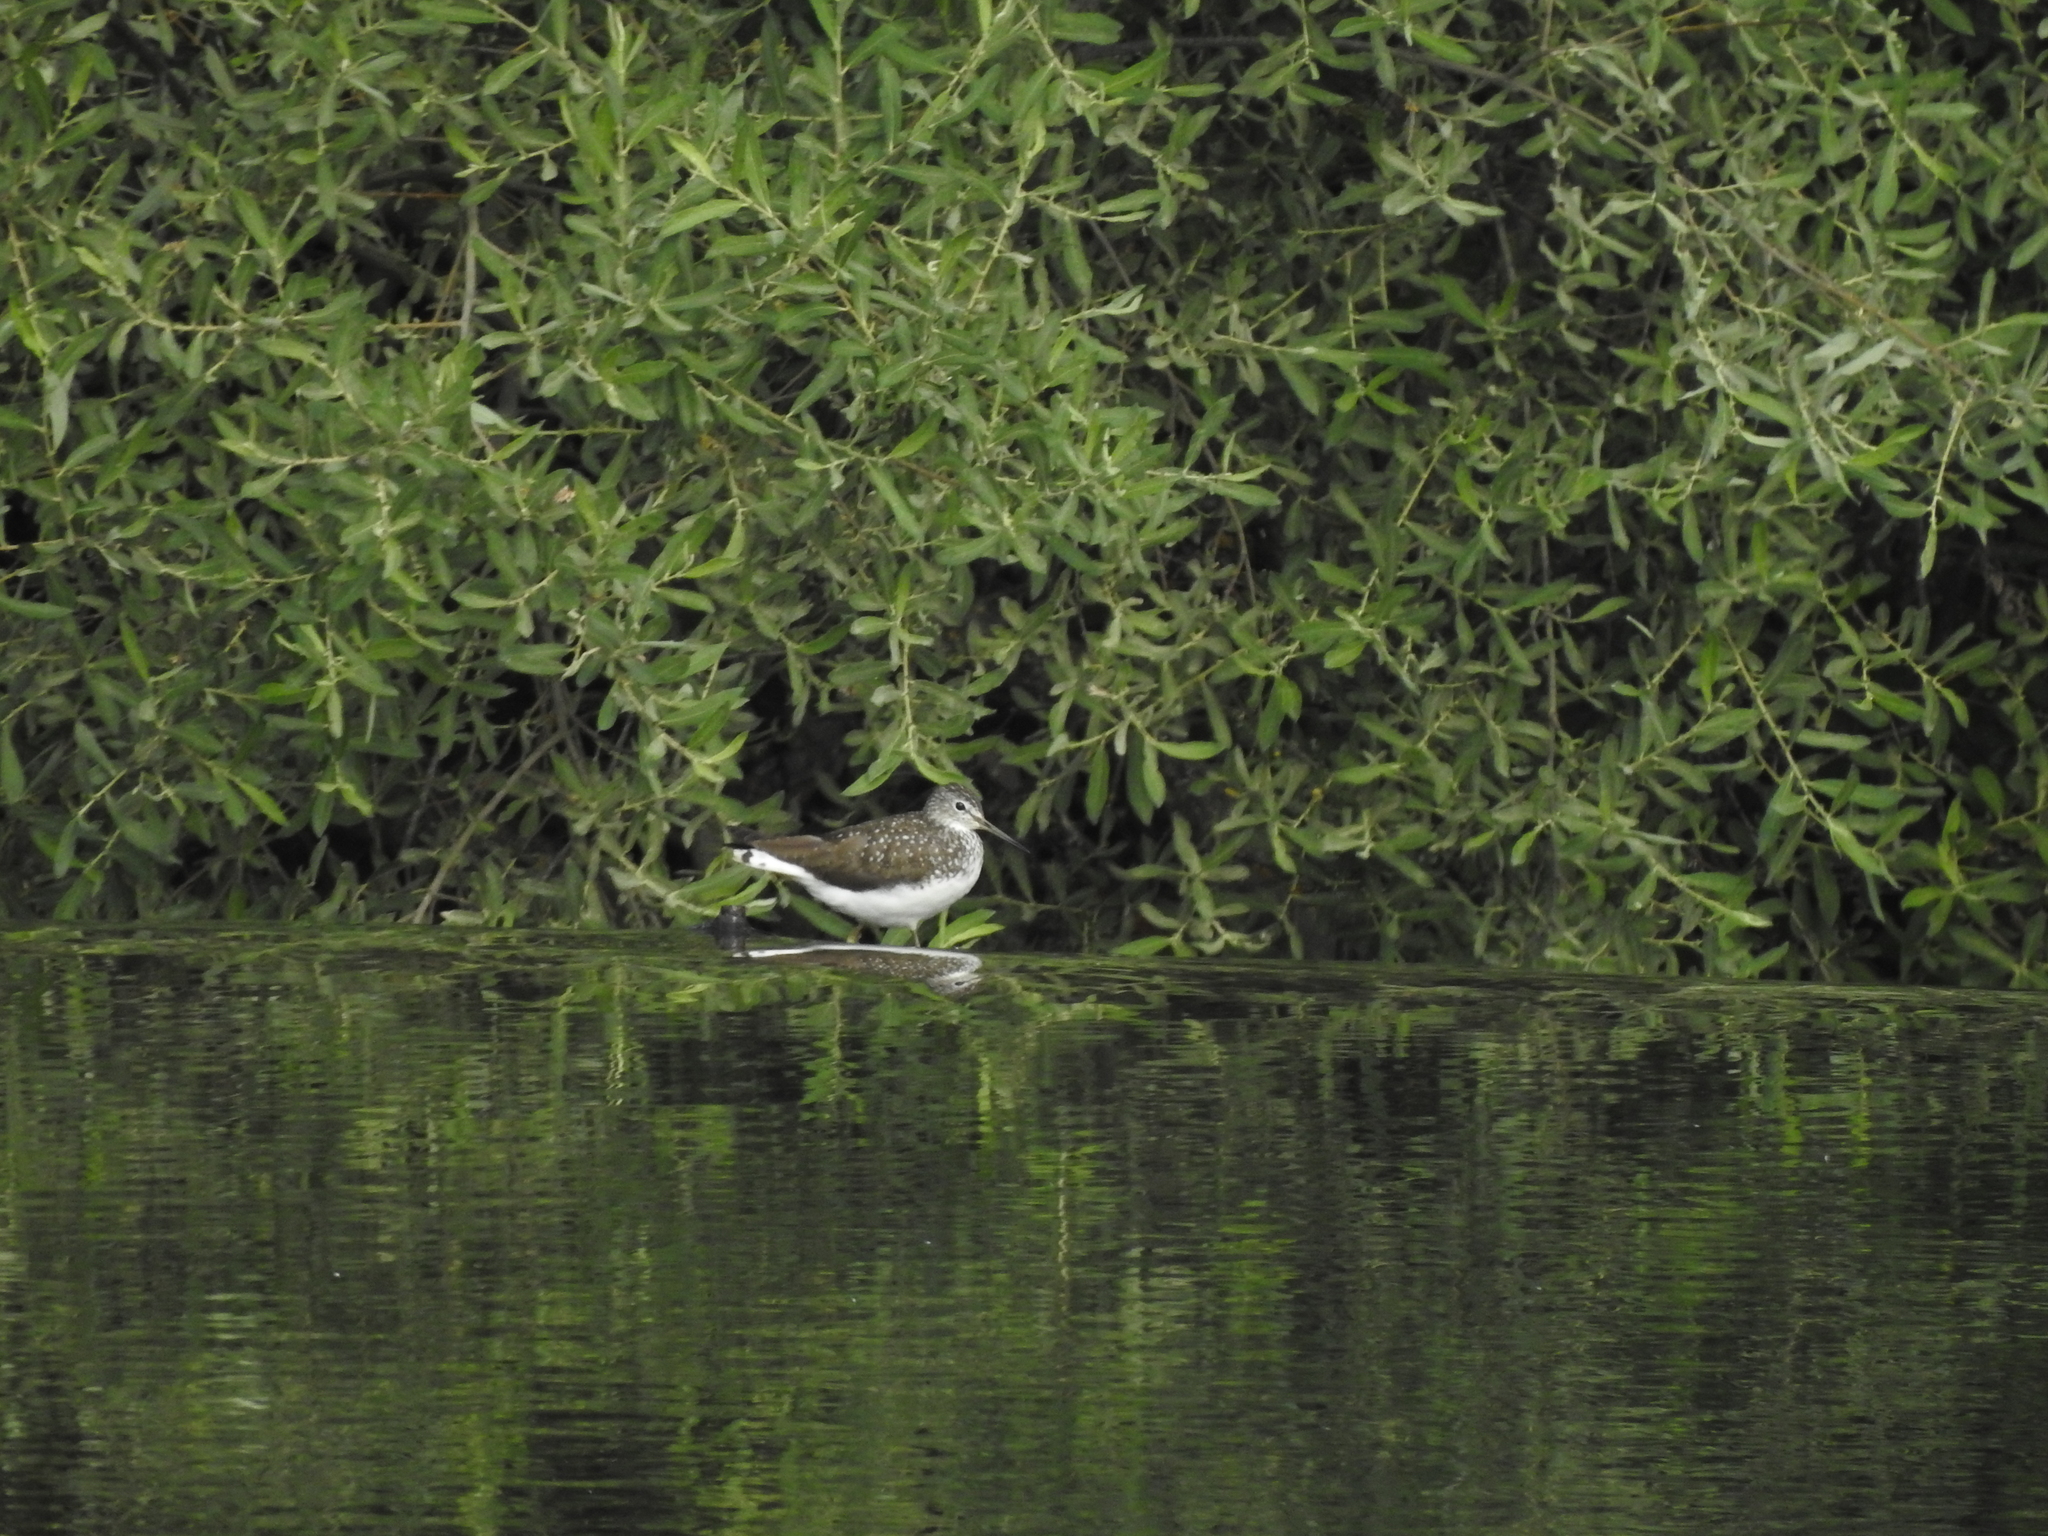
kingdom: Animalia
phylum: Chordata
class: Aves
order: Charadriiformes
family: Scolopacidae
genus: Tringa
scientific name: Tringa ochropus
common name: Green sandpiper
